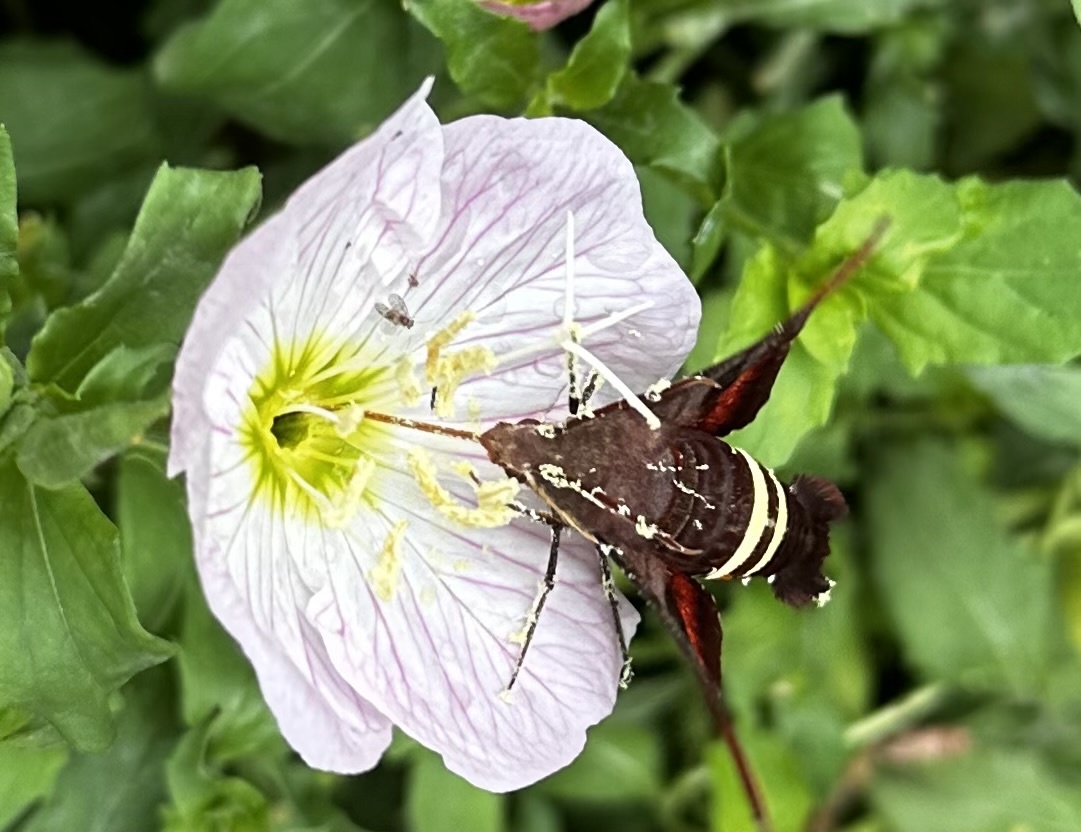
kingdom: Animalia
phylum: Arthropoda
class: Insecta
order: Lepidoptera
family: Sphingidae
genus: Amphion
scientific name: Amphion floridensis
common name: Nessus sphinx
